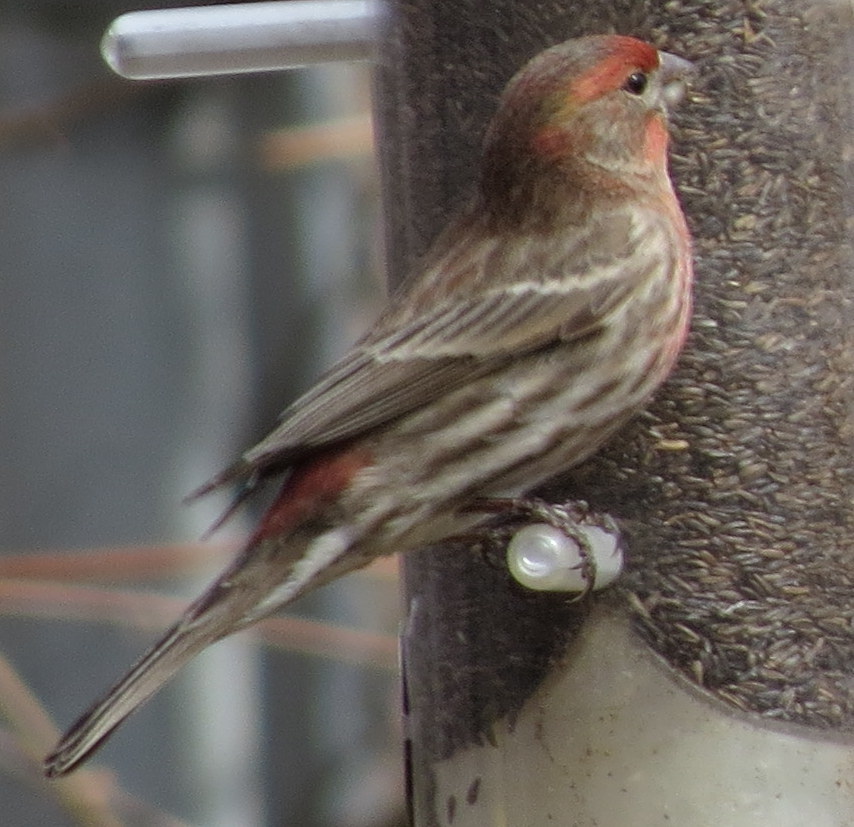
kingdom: Animalia
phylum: Chordata
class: Aves
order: Passeriformes
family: Fringillidae
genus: Haemorhous
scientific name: Haemorhous mexicanus
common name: House finch
